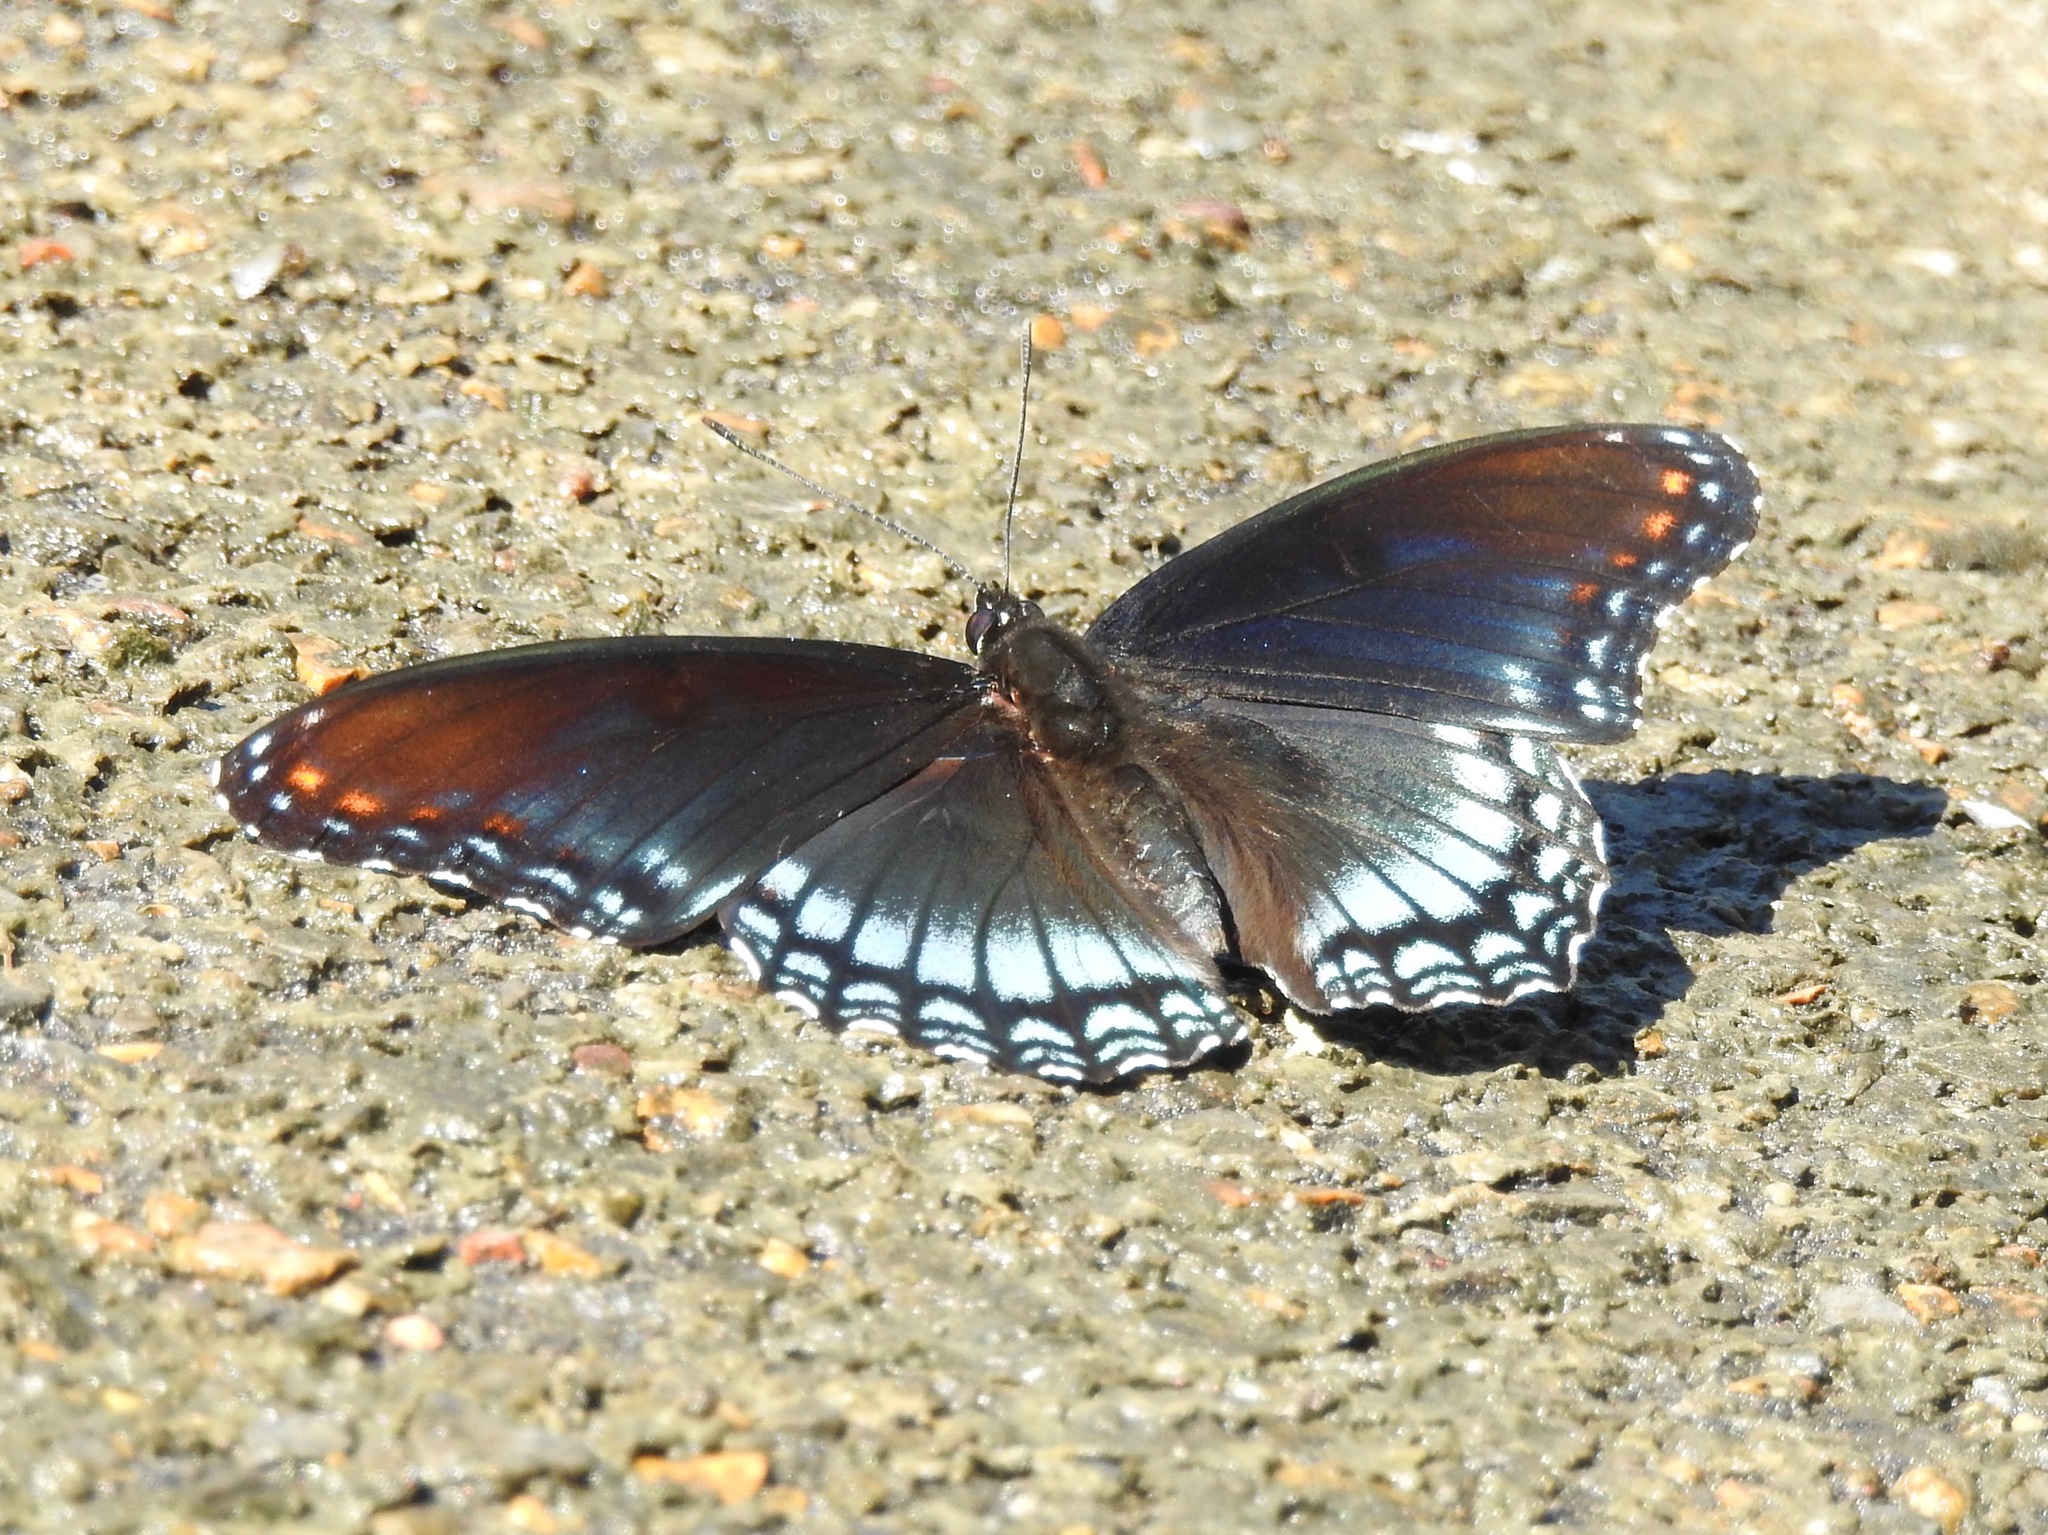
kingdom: Animalia
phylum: Arthropoda
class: Insecta
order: Lepidoptera
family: Nymphalidae
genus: Limenitis
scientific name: Limenitis astyanax
